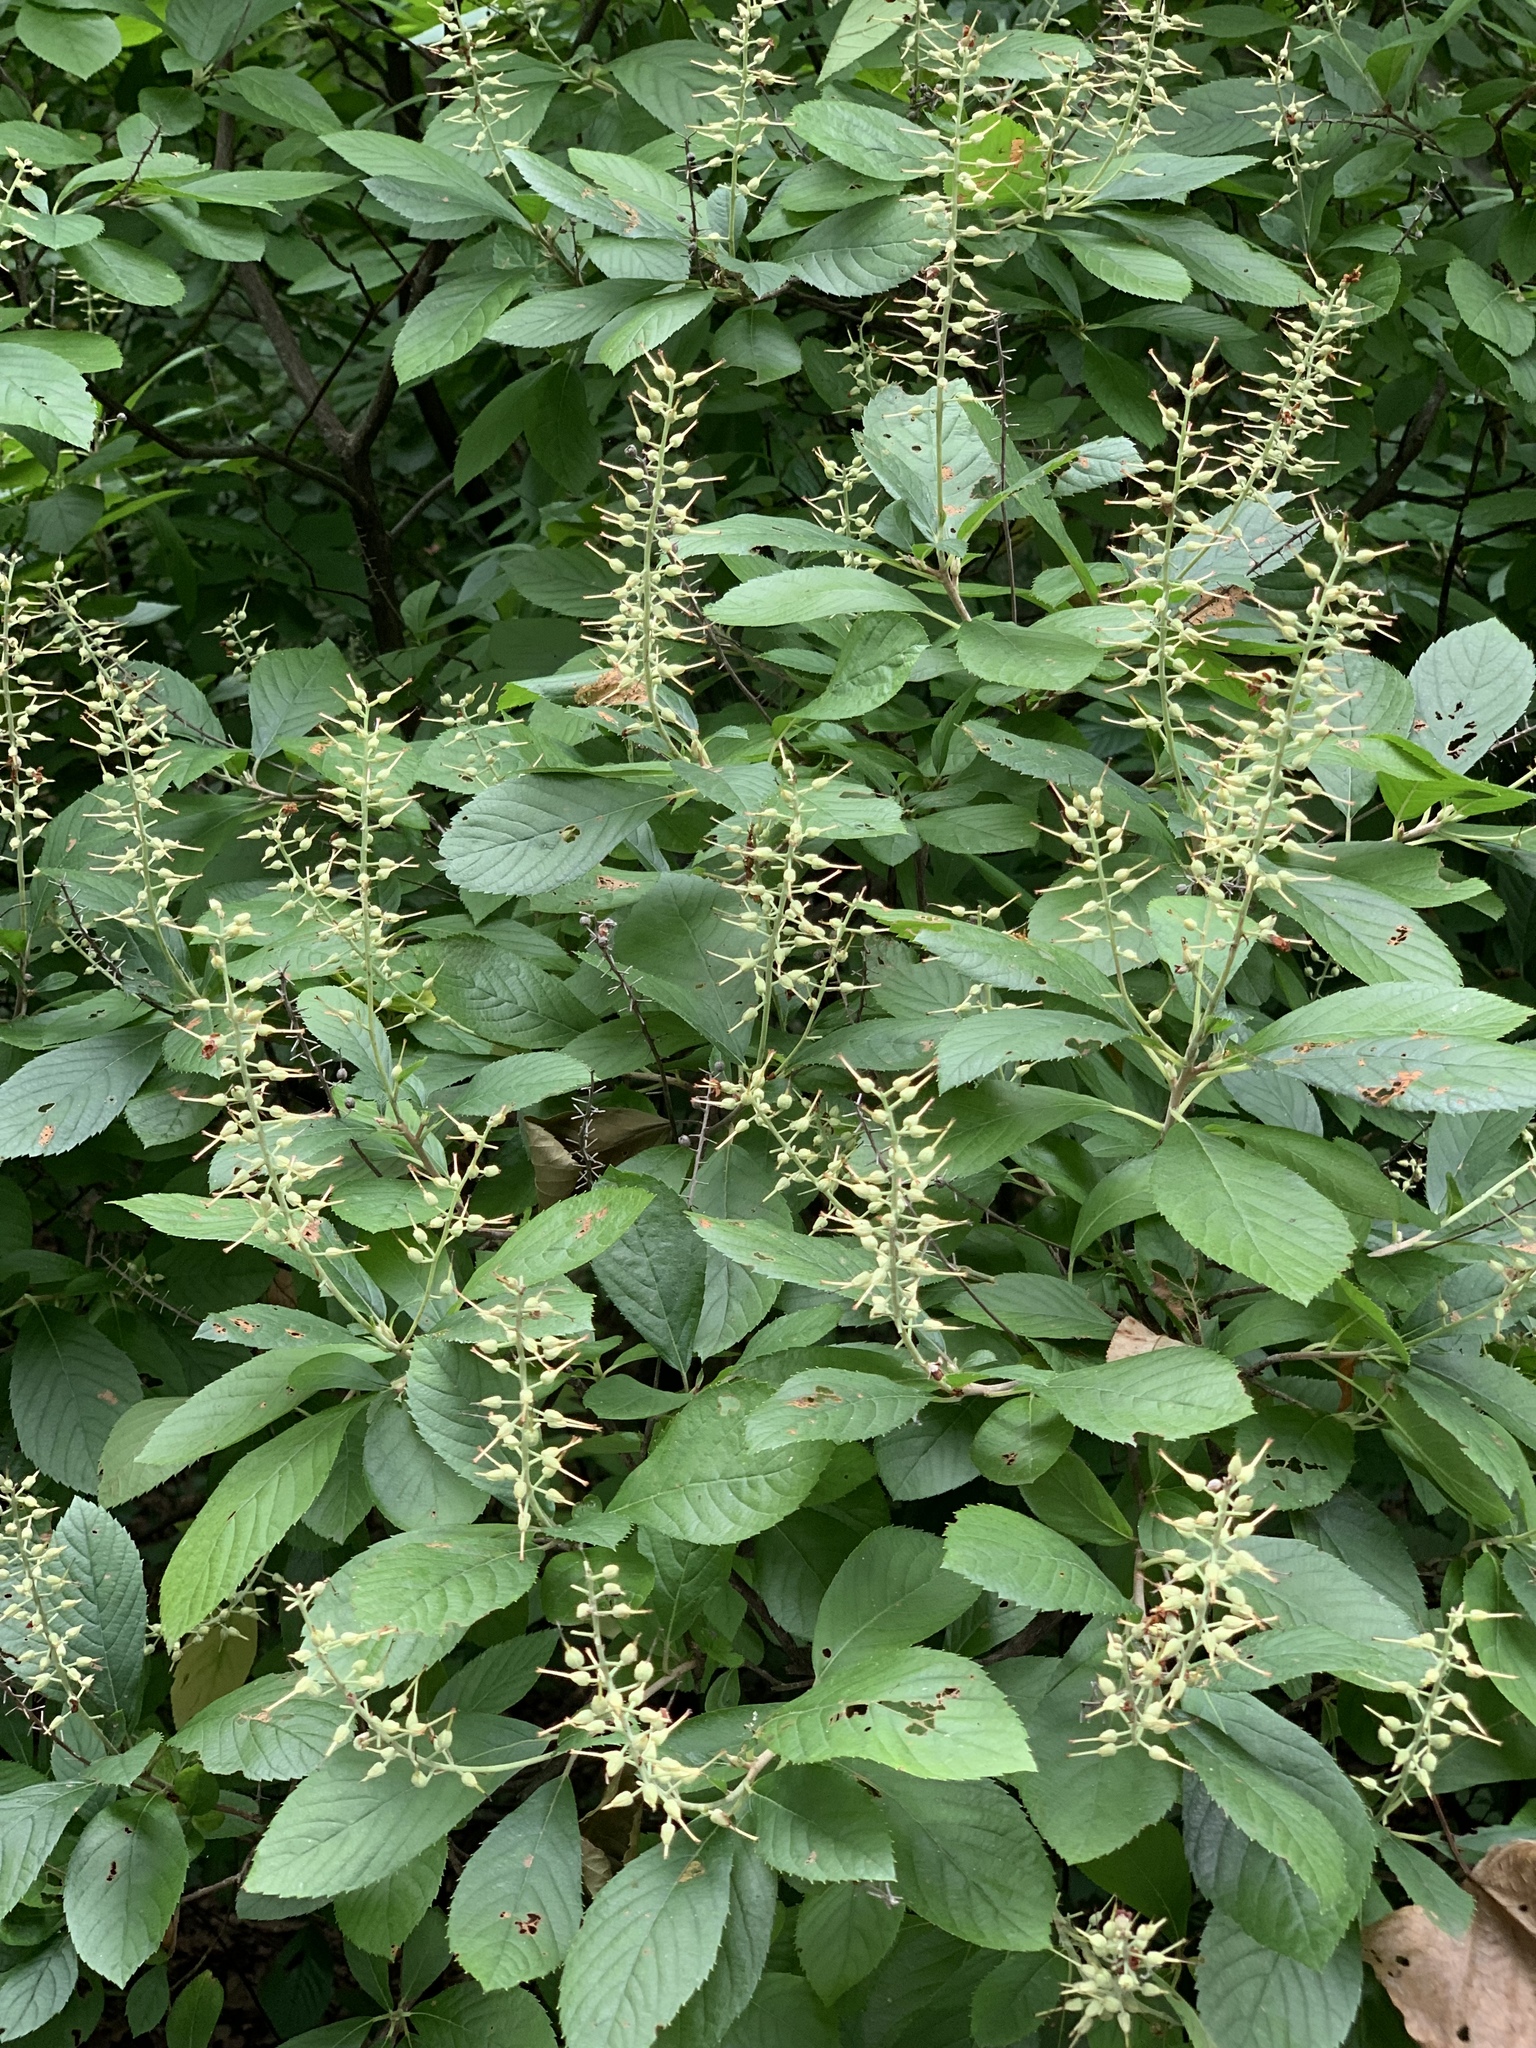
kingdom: Plantae
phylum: Tracheophyta
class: Magnoliopsida
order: Ericales
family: Clethraceae
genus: Clethra
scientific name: Clethra alnifolia
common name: Sweet pepperbush
